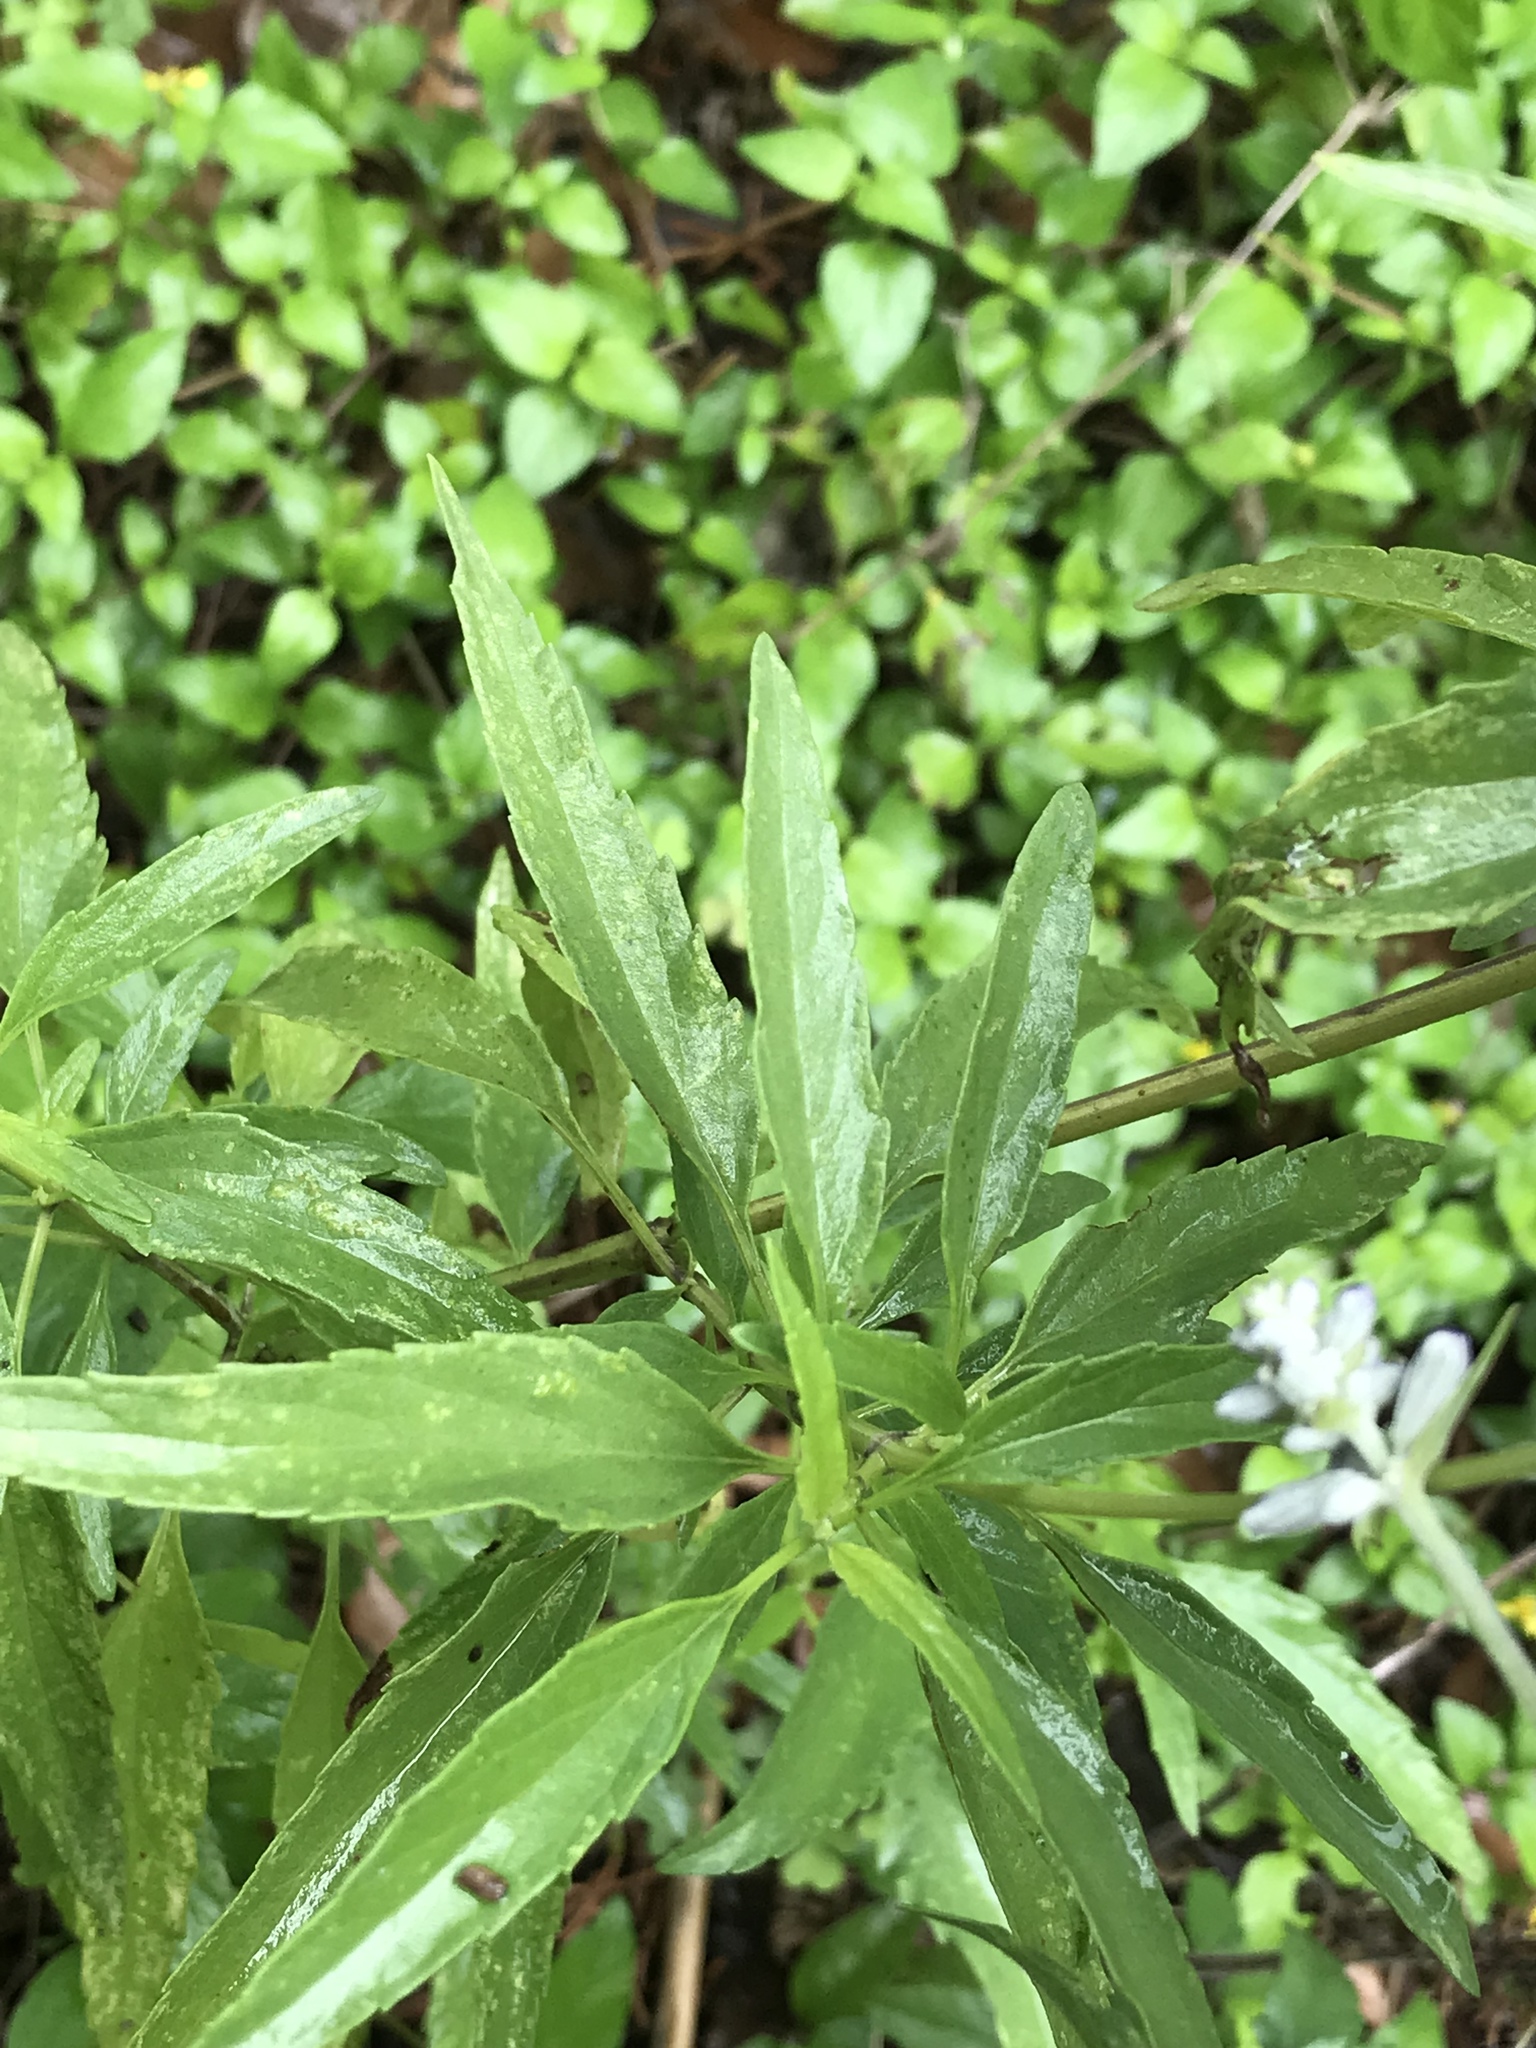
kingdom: Plantae
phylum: Tracheophyta
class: Magnoliopsida
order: Lamiales
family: Lamiaceae
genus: Salvia
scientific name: Salvia farinacea
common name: Mealy sage
